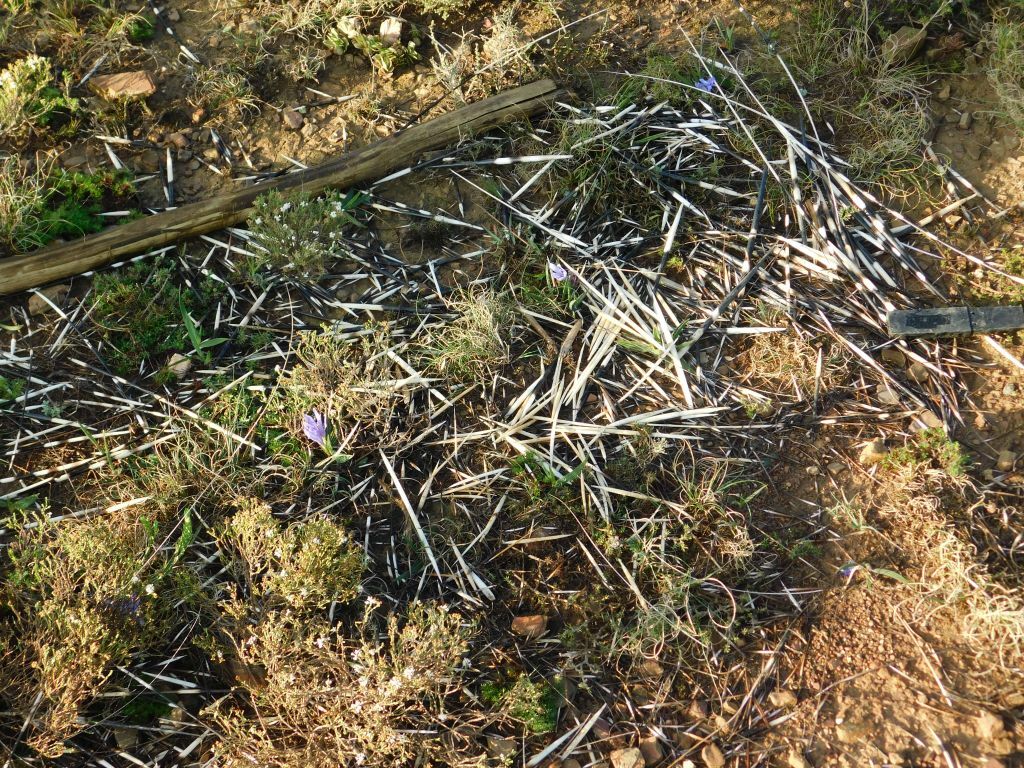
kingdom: Animalia
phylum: Chordata
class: Mammalia
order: Rodentia
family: Hystricidae
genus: Hystrix
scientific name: Hystrix africaeaustralis
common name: Cape porcupine
